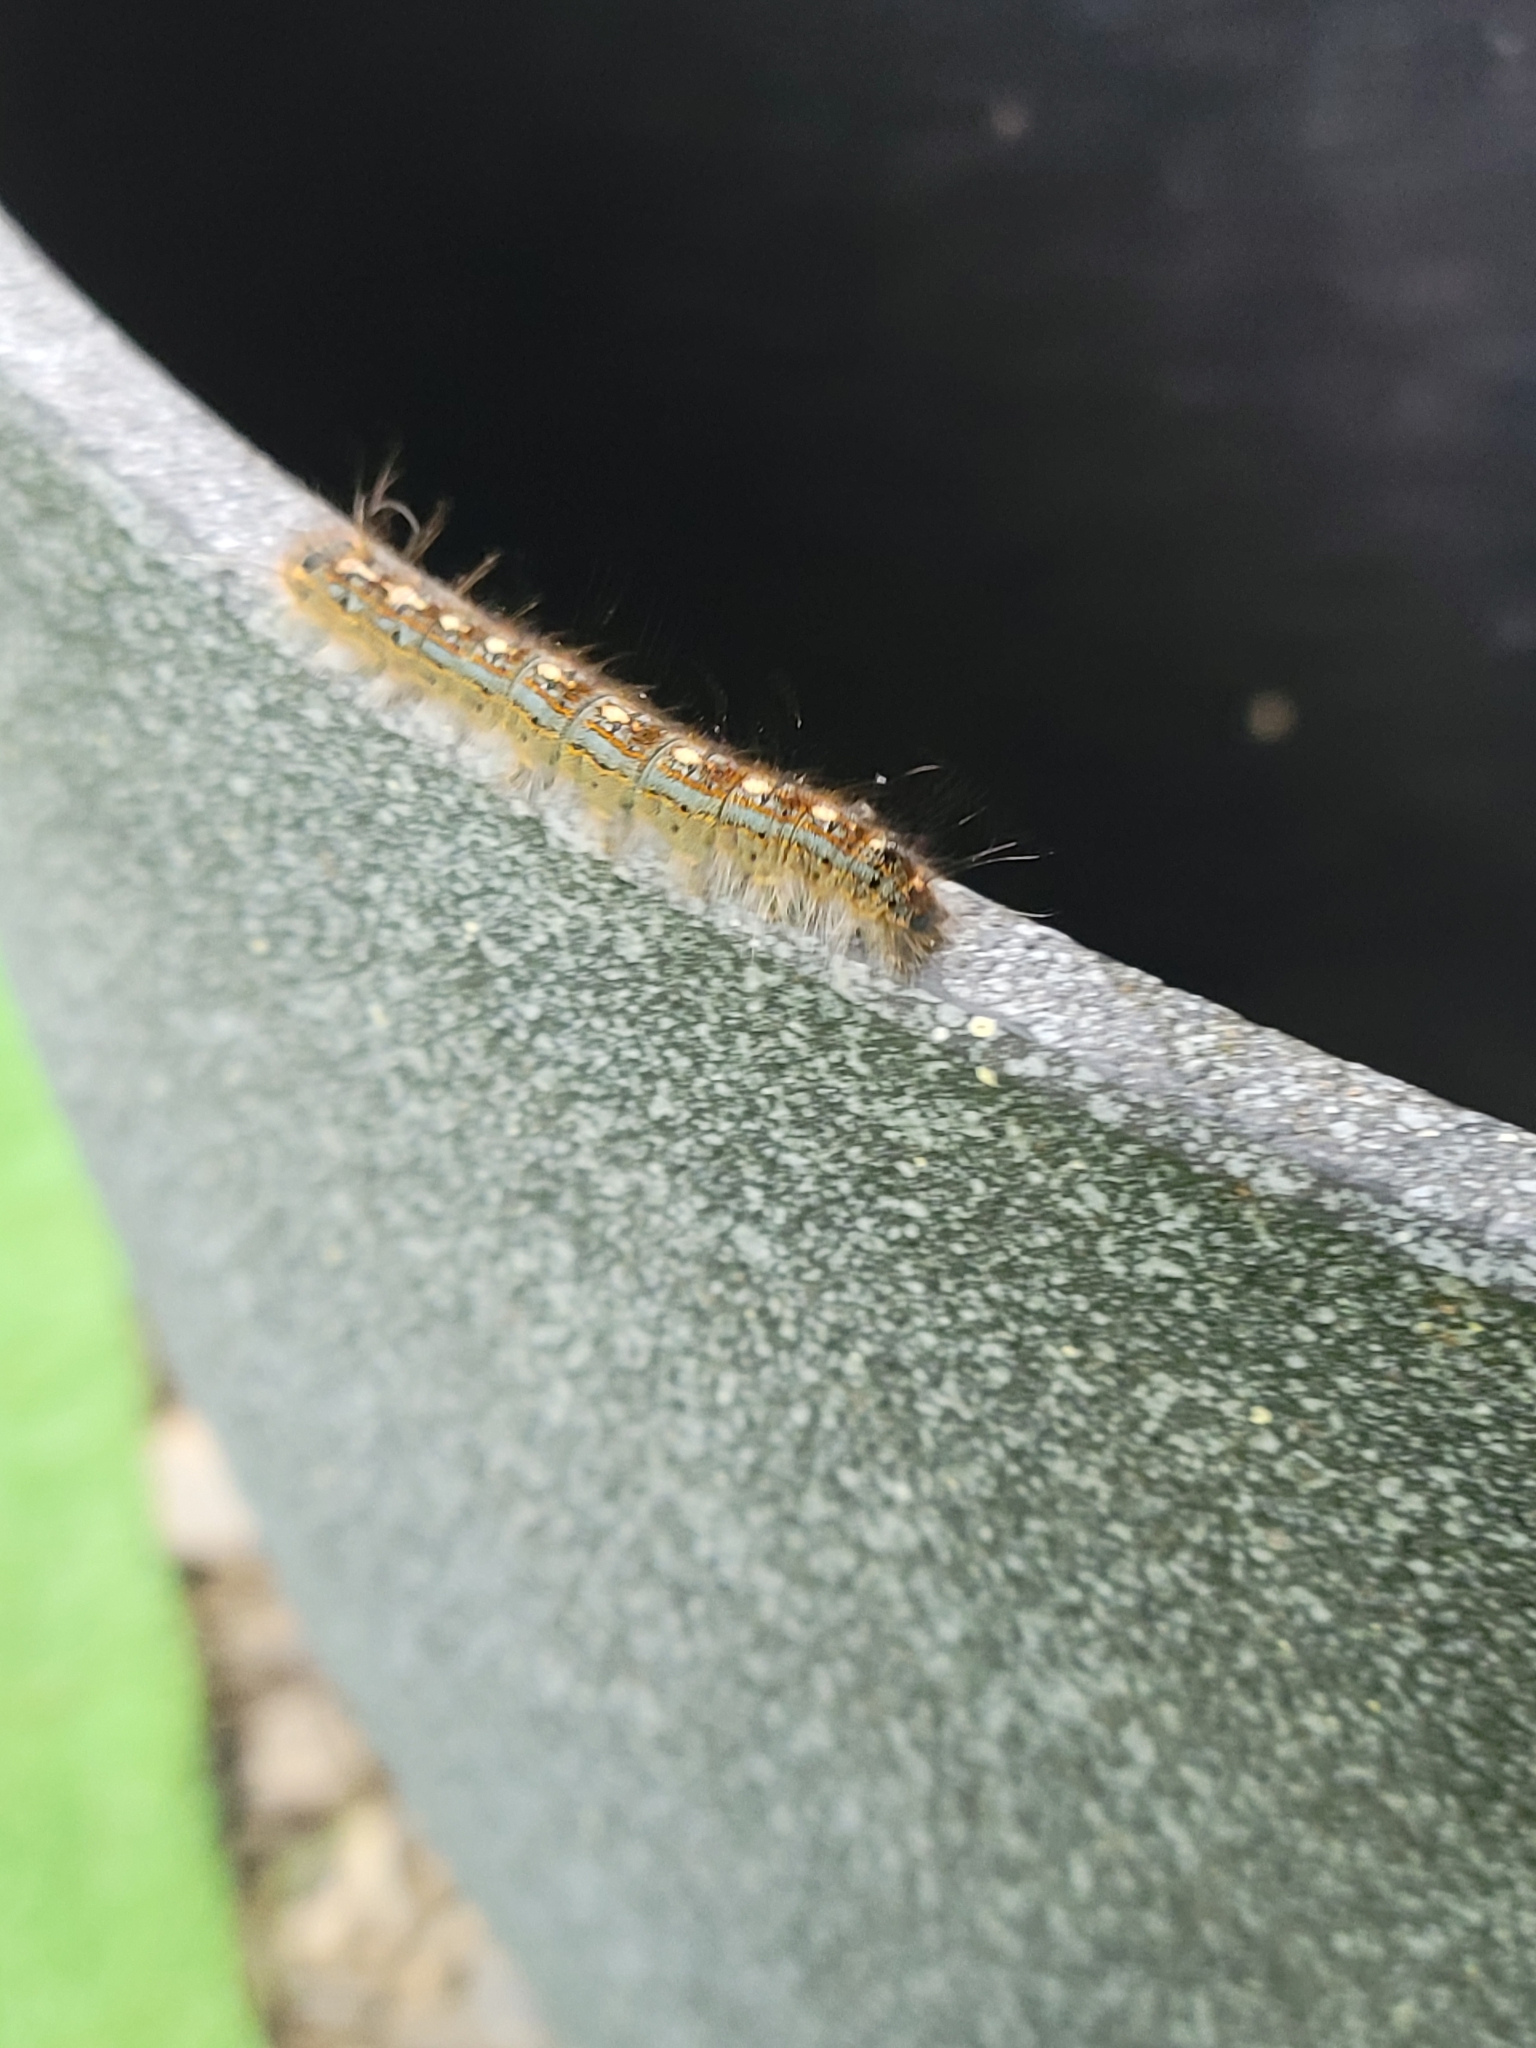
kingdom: Animalia
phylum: Arthropoda
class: Insecta
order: Lepidoptera
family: Lasiocampidae
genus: Malacosoma
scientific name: Malacosoma disstria
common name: Forest tent caterpillar
